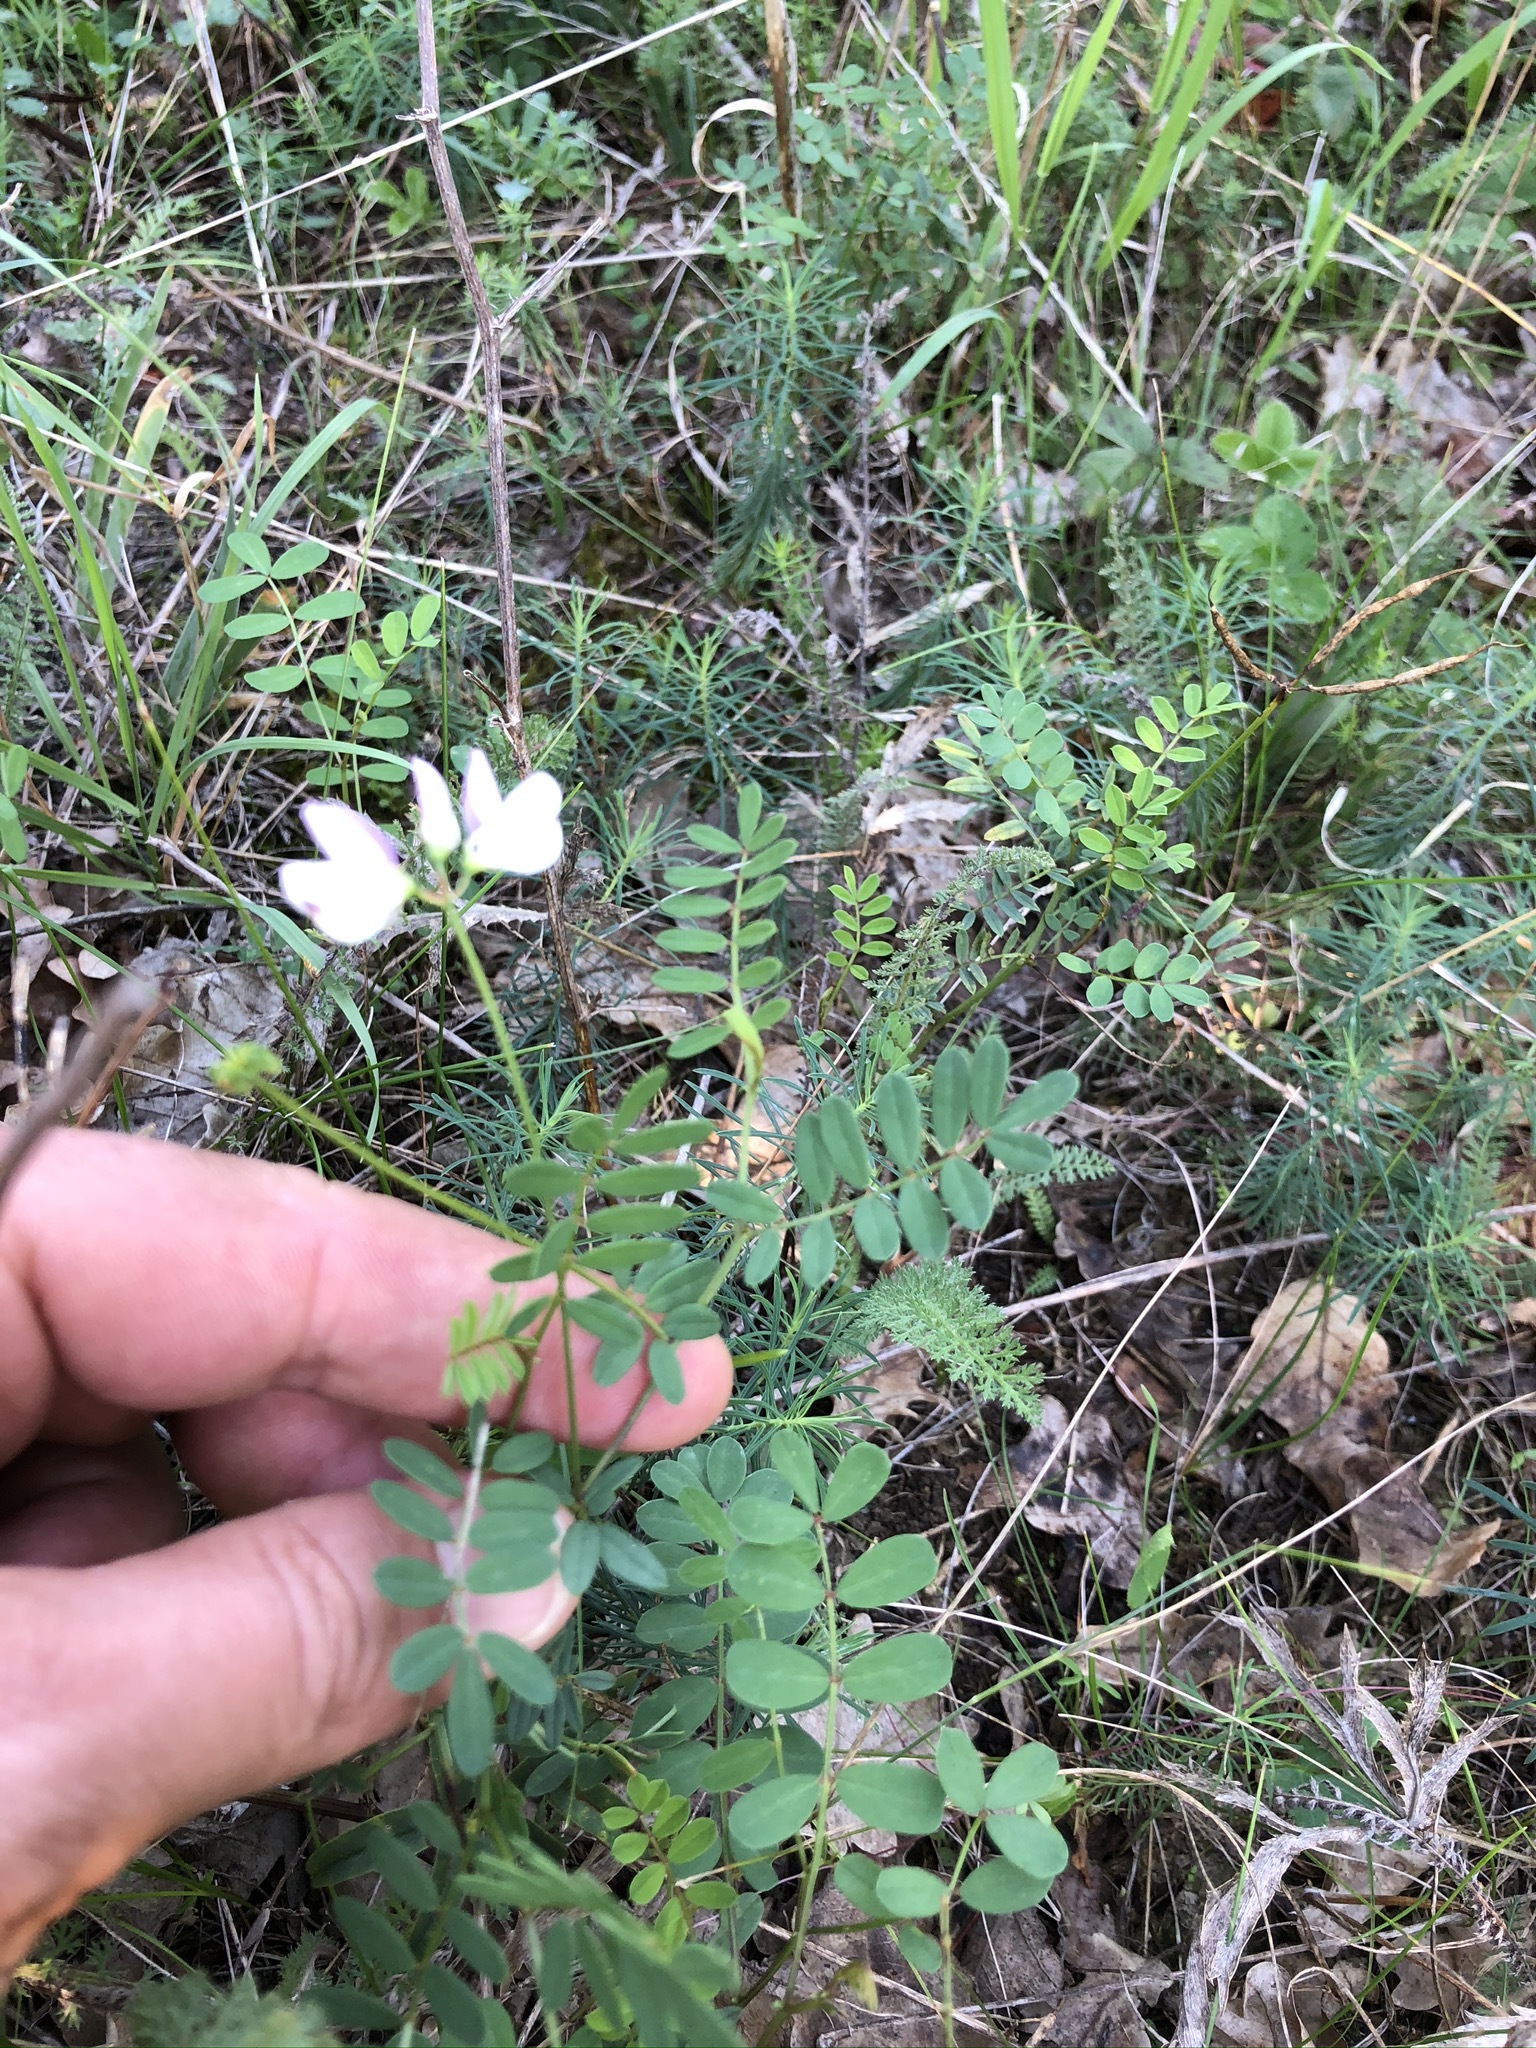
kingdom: Plantae
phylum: Tracheophyta
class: Magnoliopsida
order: Fabales
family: Fabaceae
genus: Coronilla
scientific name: Coronilla varia
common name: Crownvetch
